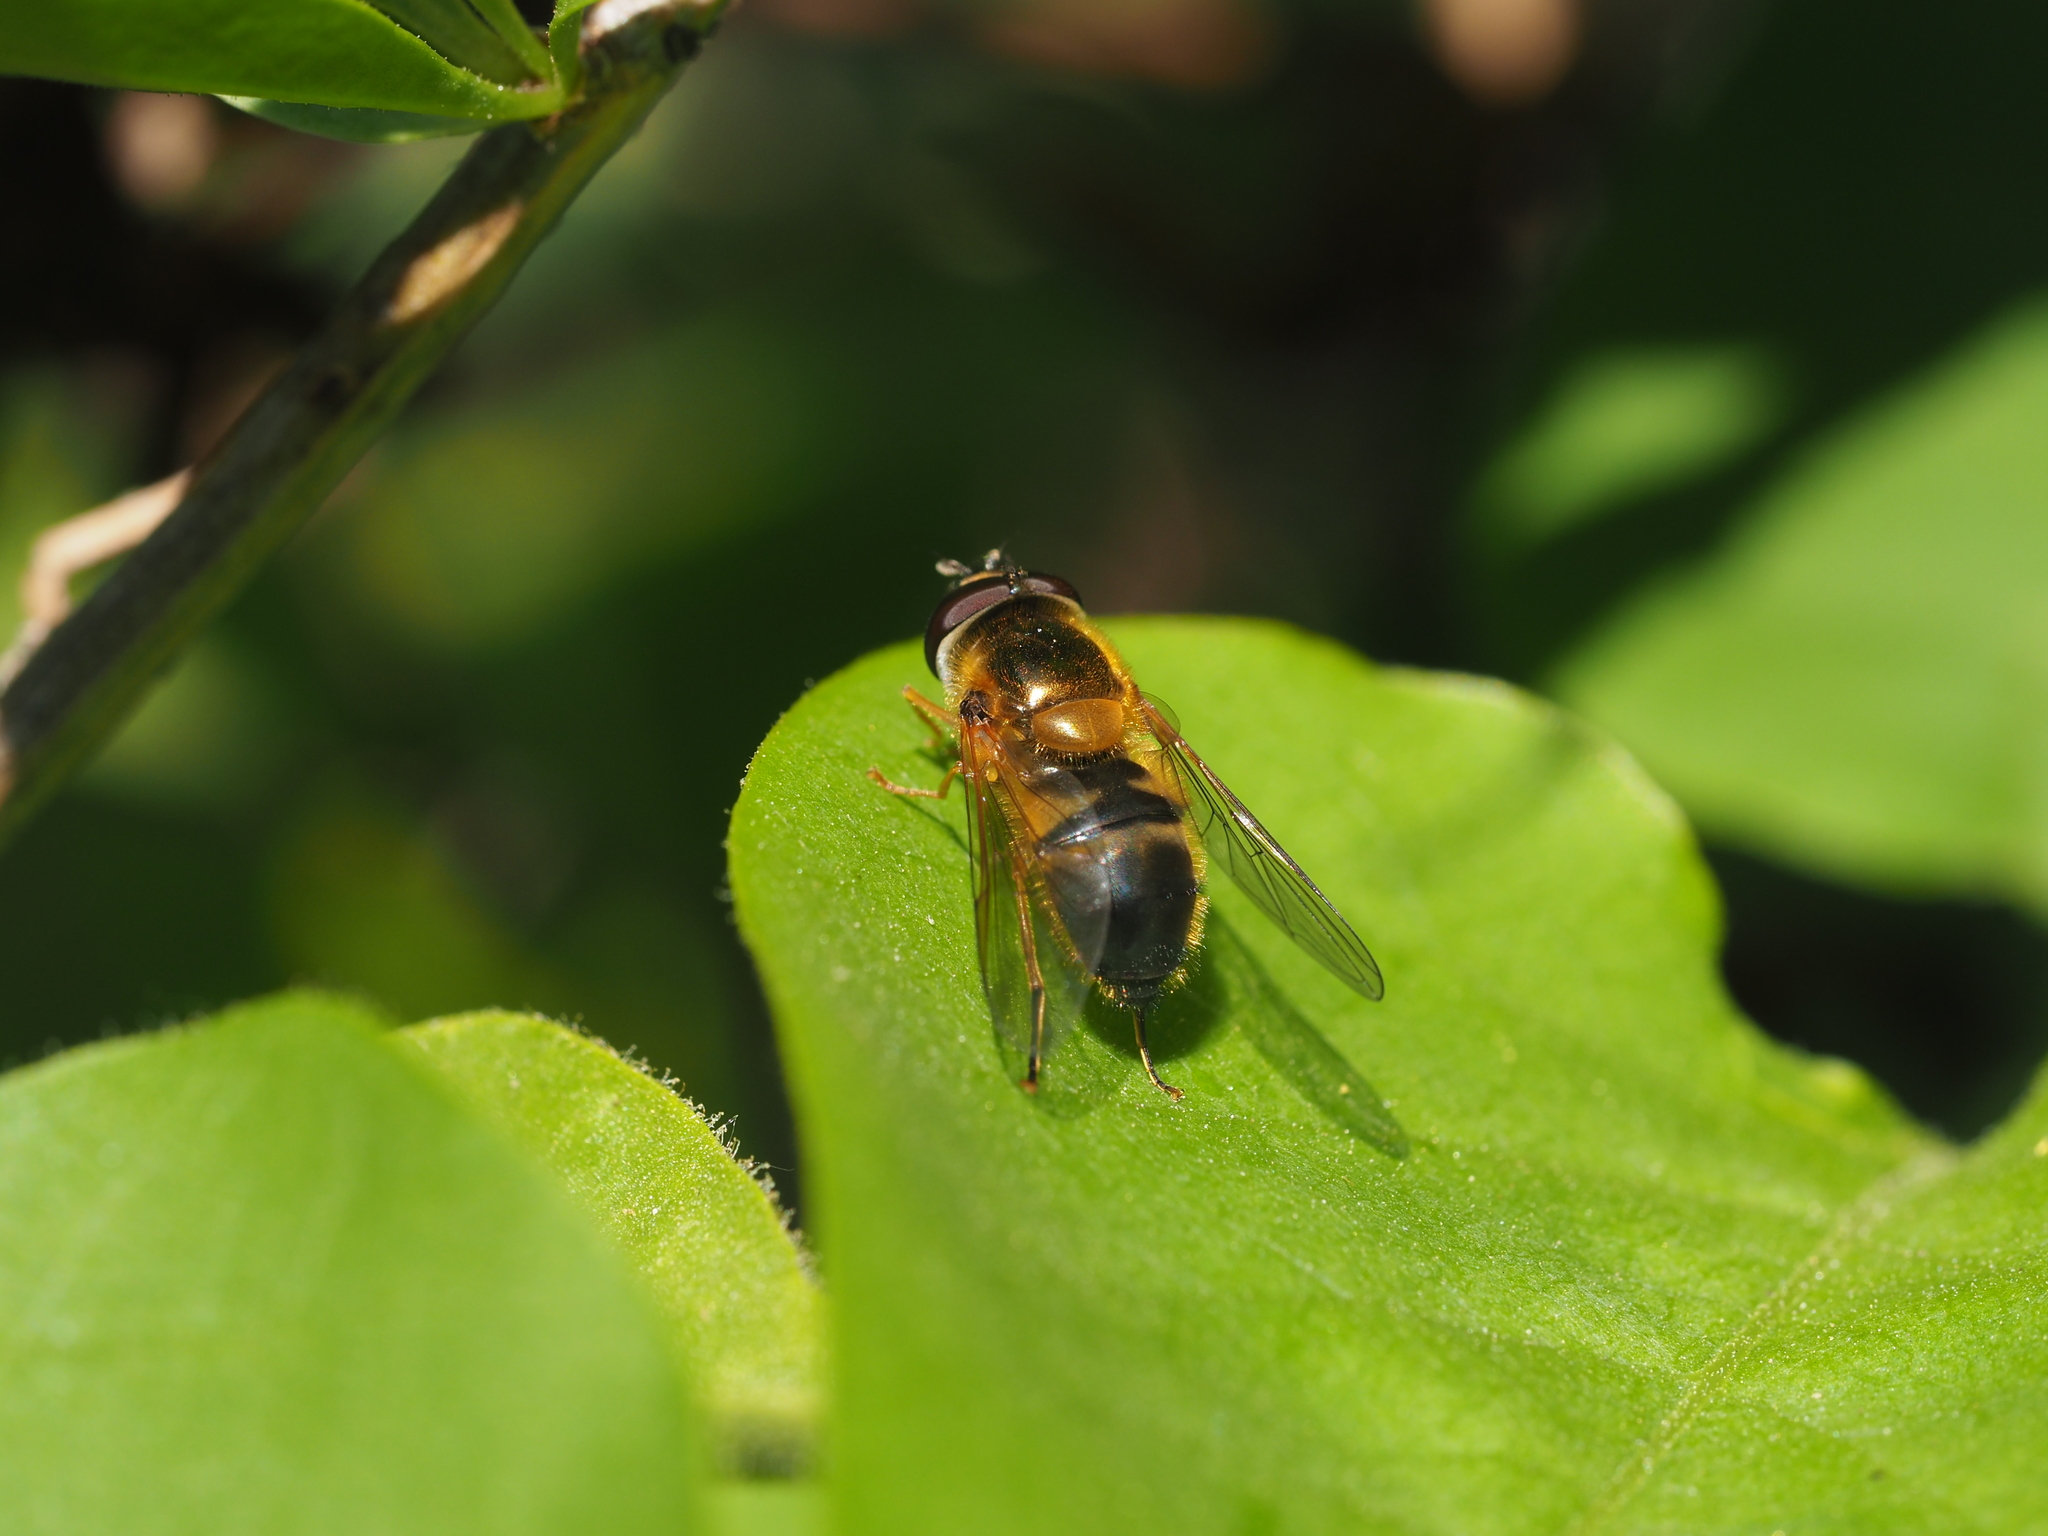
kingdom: Animalia
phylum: Arthropoda
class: Insecta
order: Diptera
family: Syrphidae
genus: Epistrophe
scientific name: Epistrophe eligans
